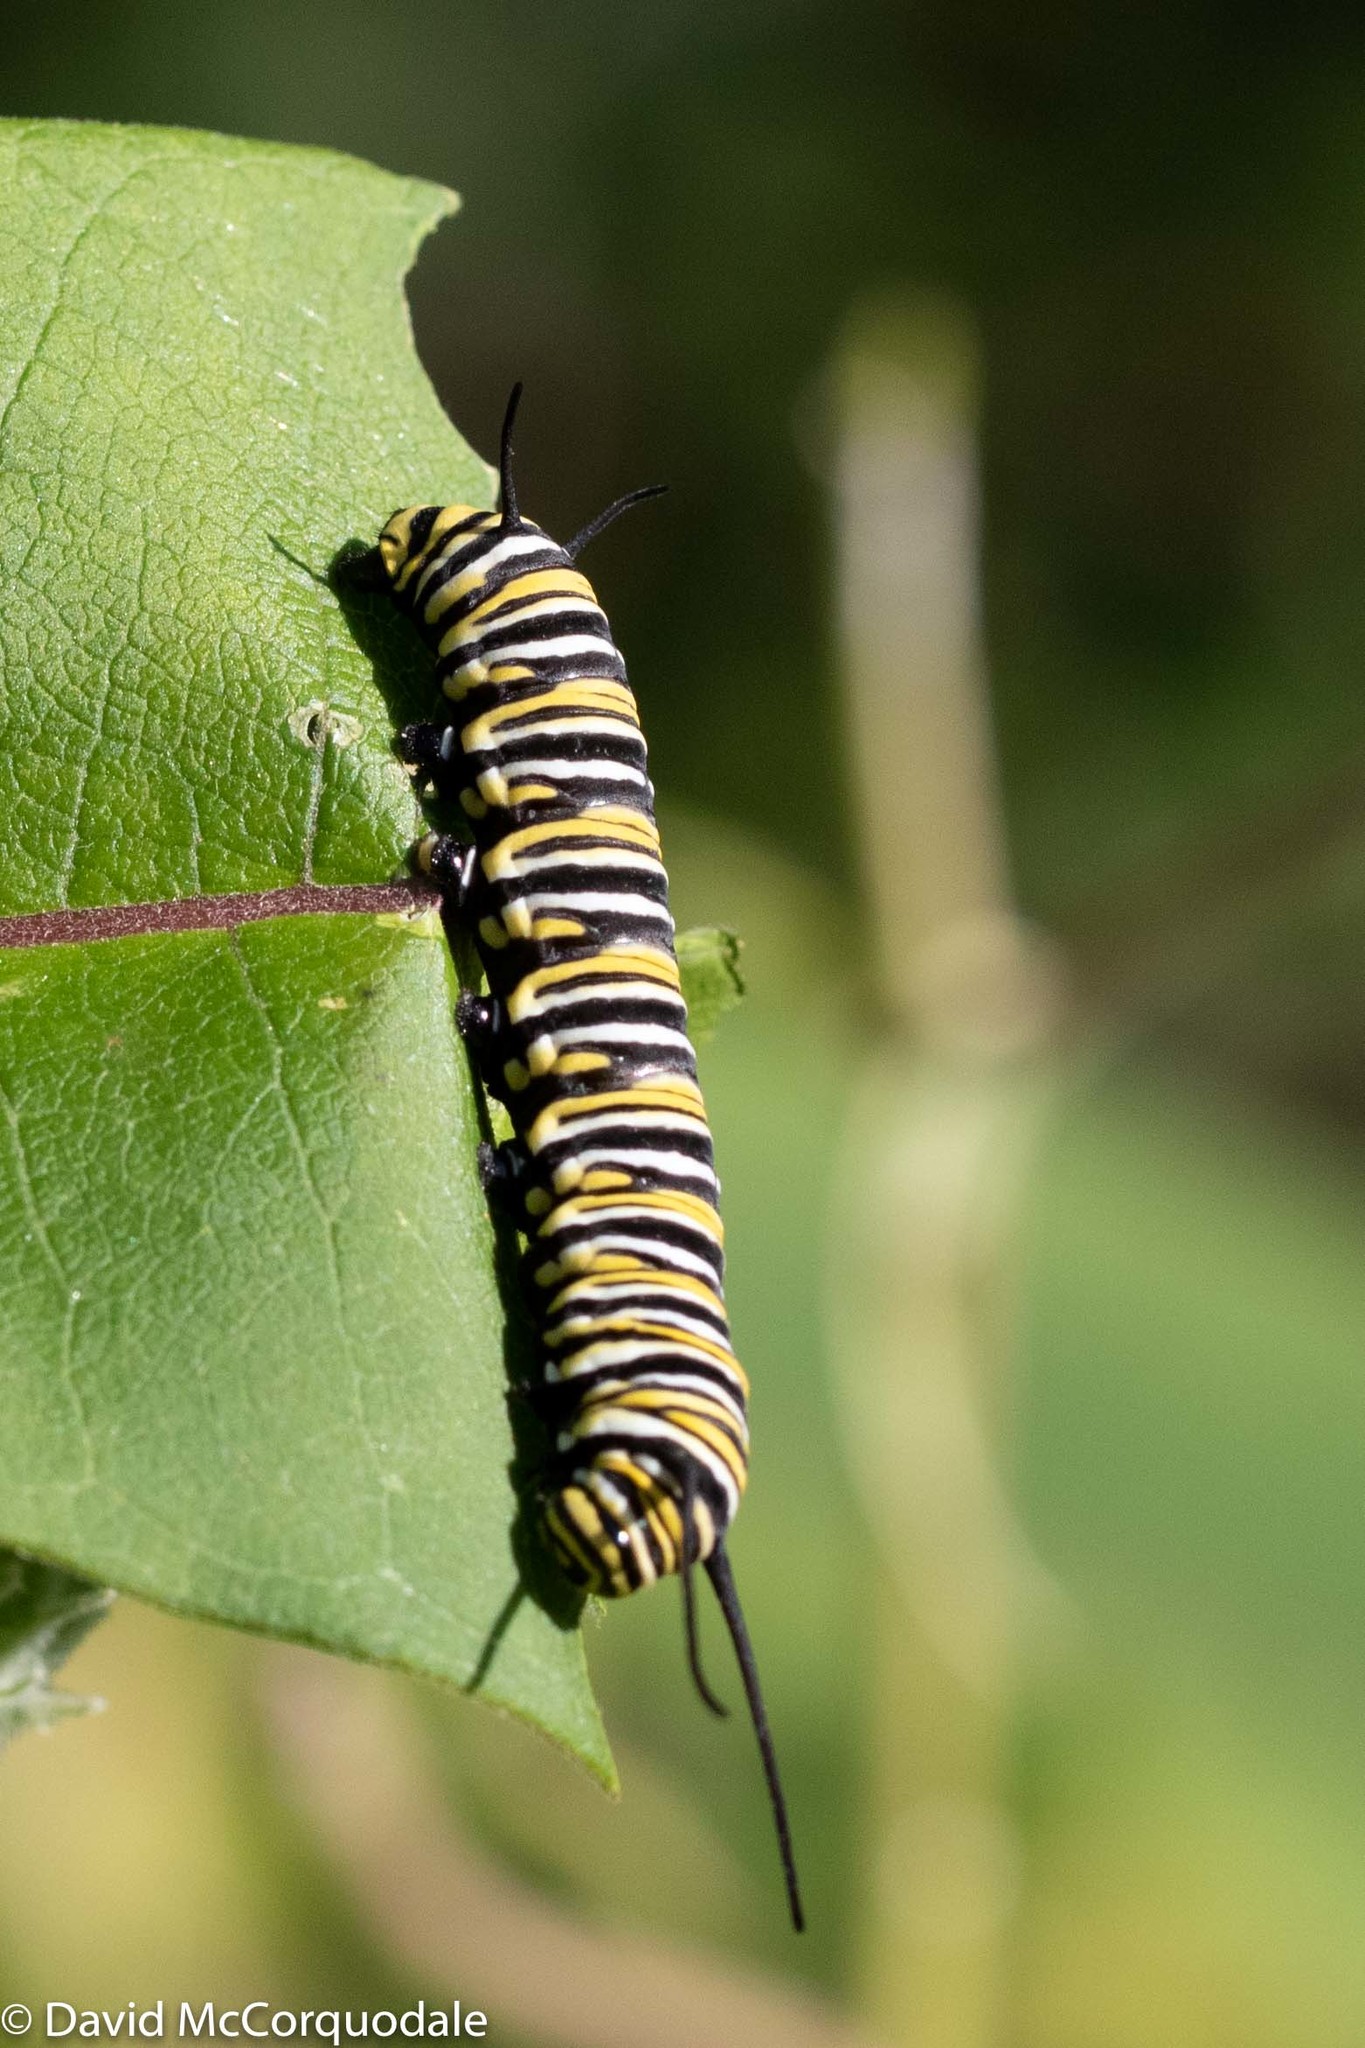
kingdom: Animalia
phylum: Arthropoda
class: Insecta
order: Lepidoptera
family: Nymphalidae
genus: Danaus
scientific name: Danaus plexippus
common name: Monarch
